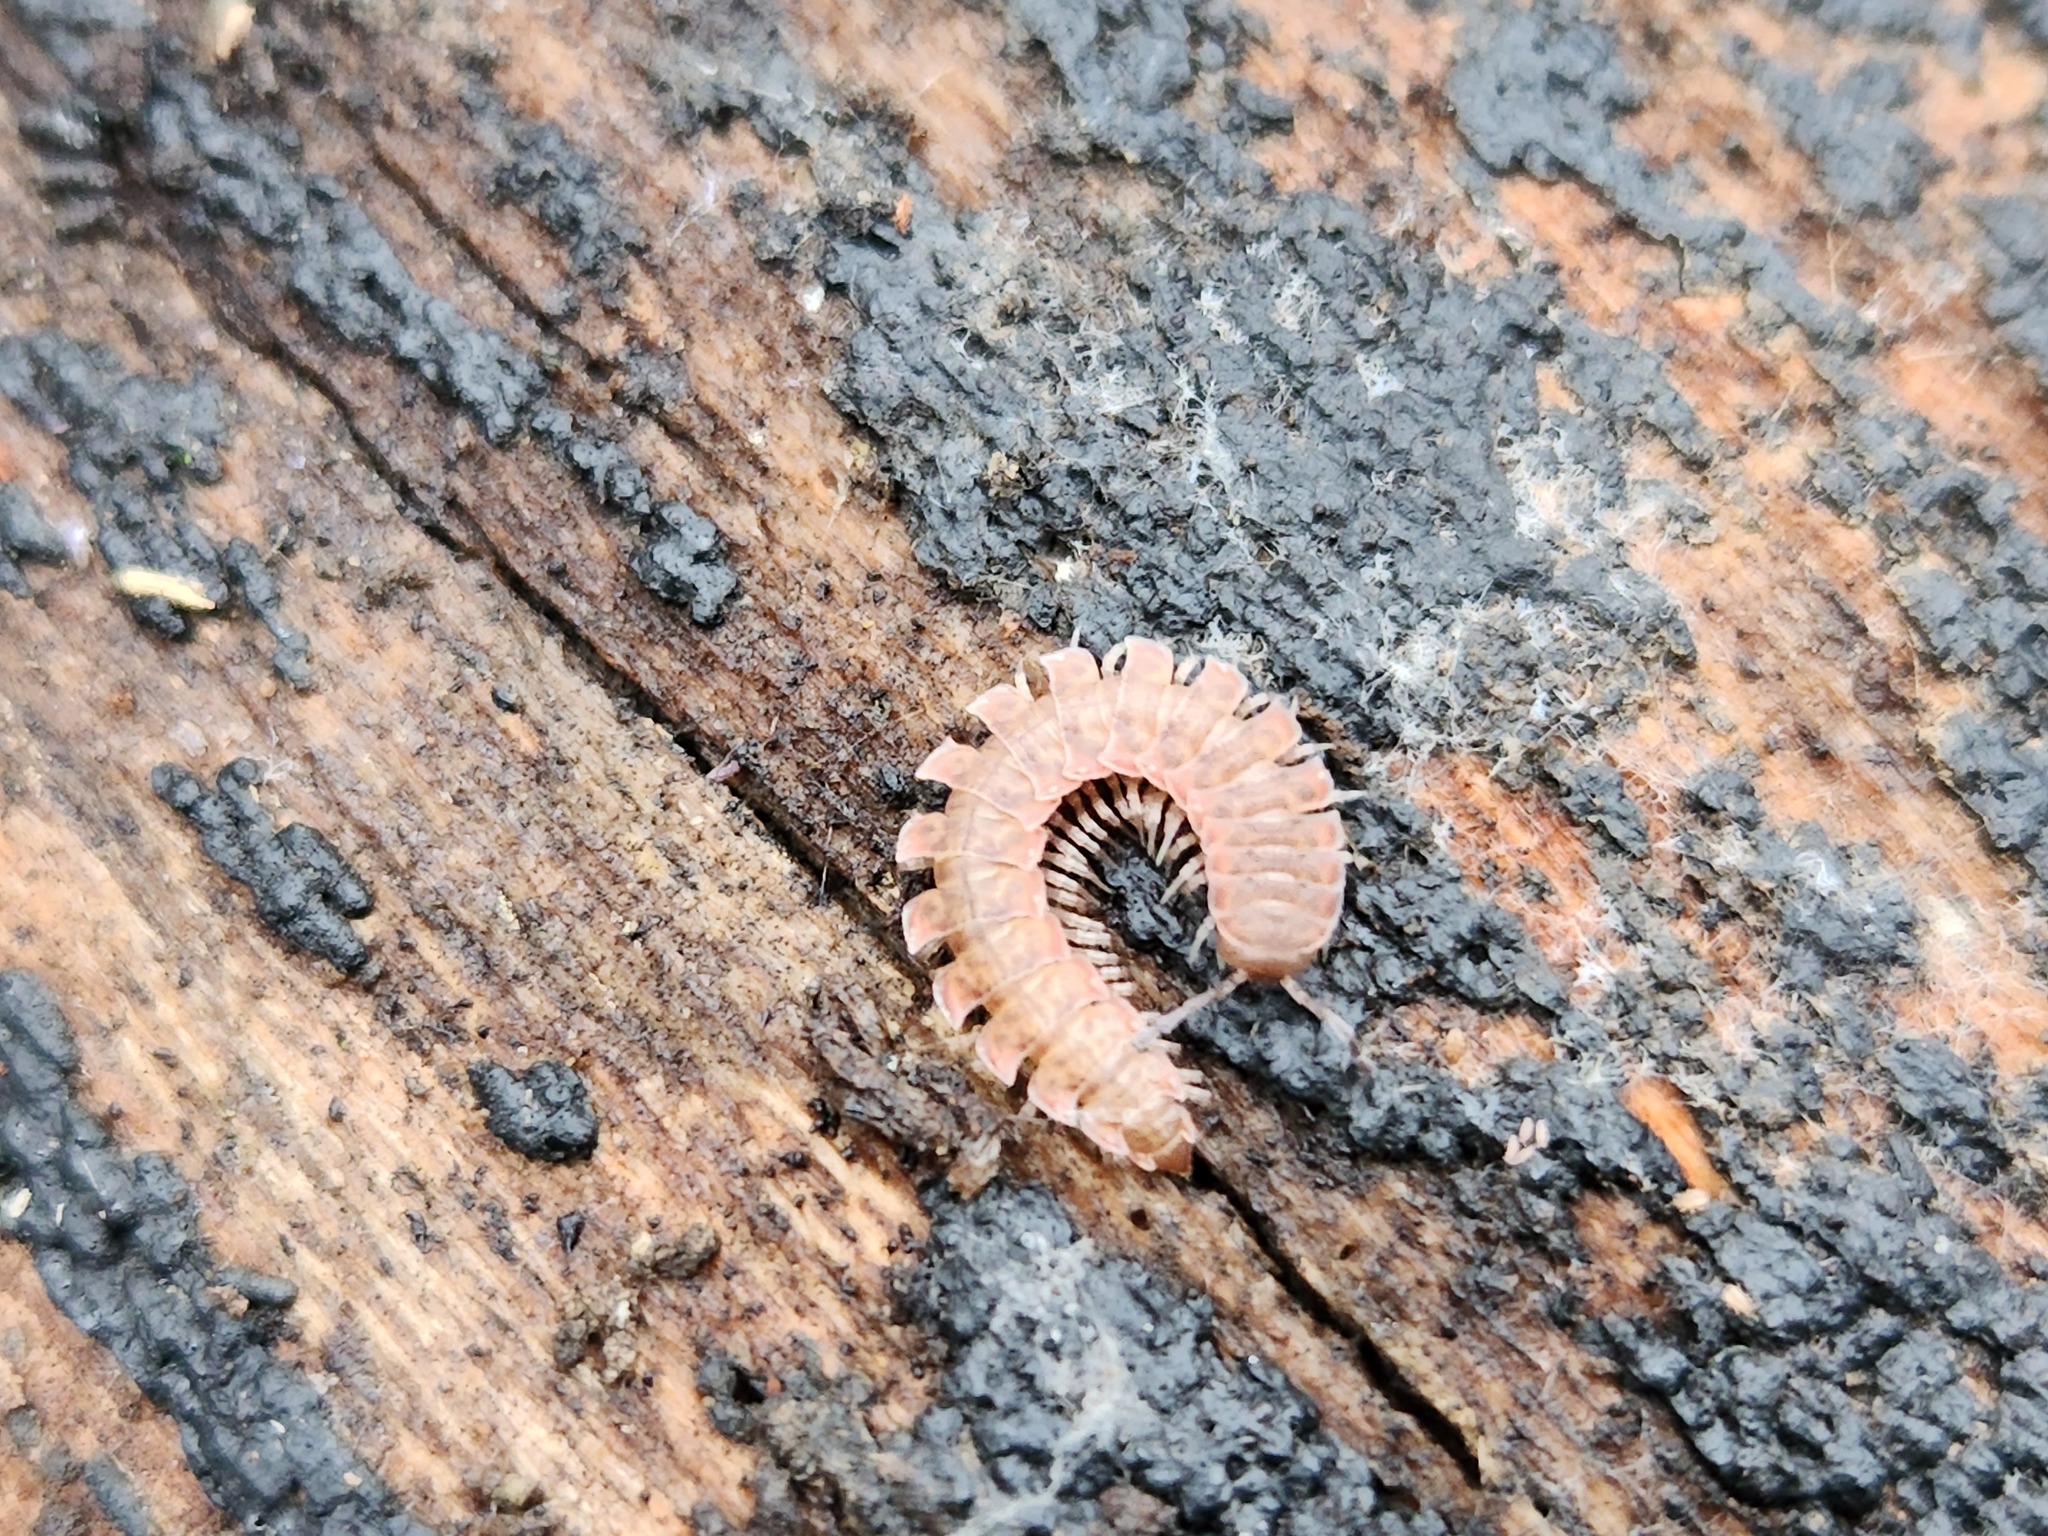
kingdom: Animalia
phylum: Arthropoda
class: Diplopoda
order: Polydesmida
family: Polydesmidae
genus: Pseudopolydesmus
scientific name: Pseudopolydesmus erasus
